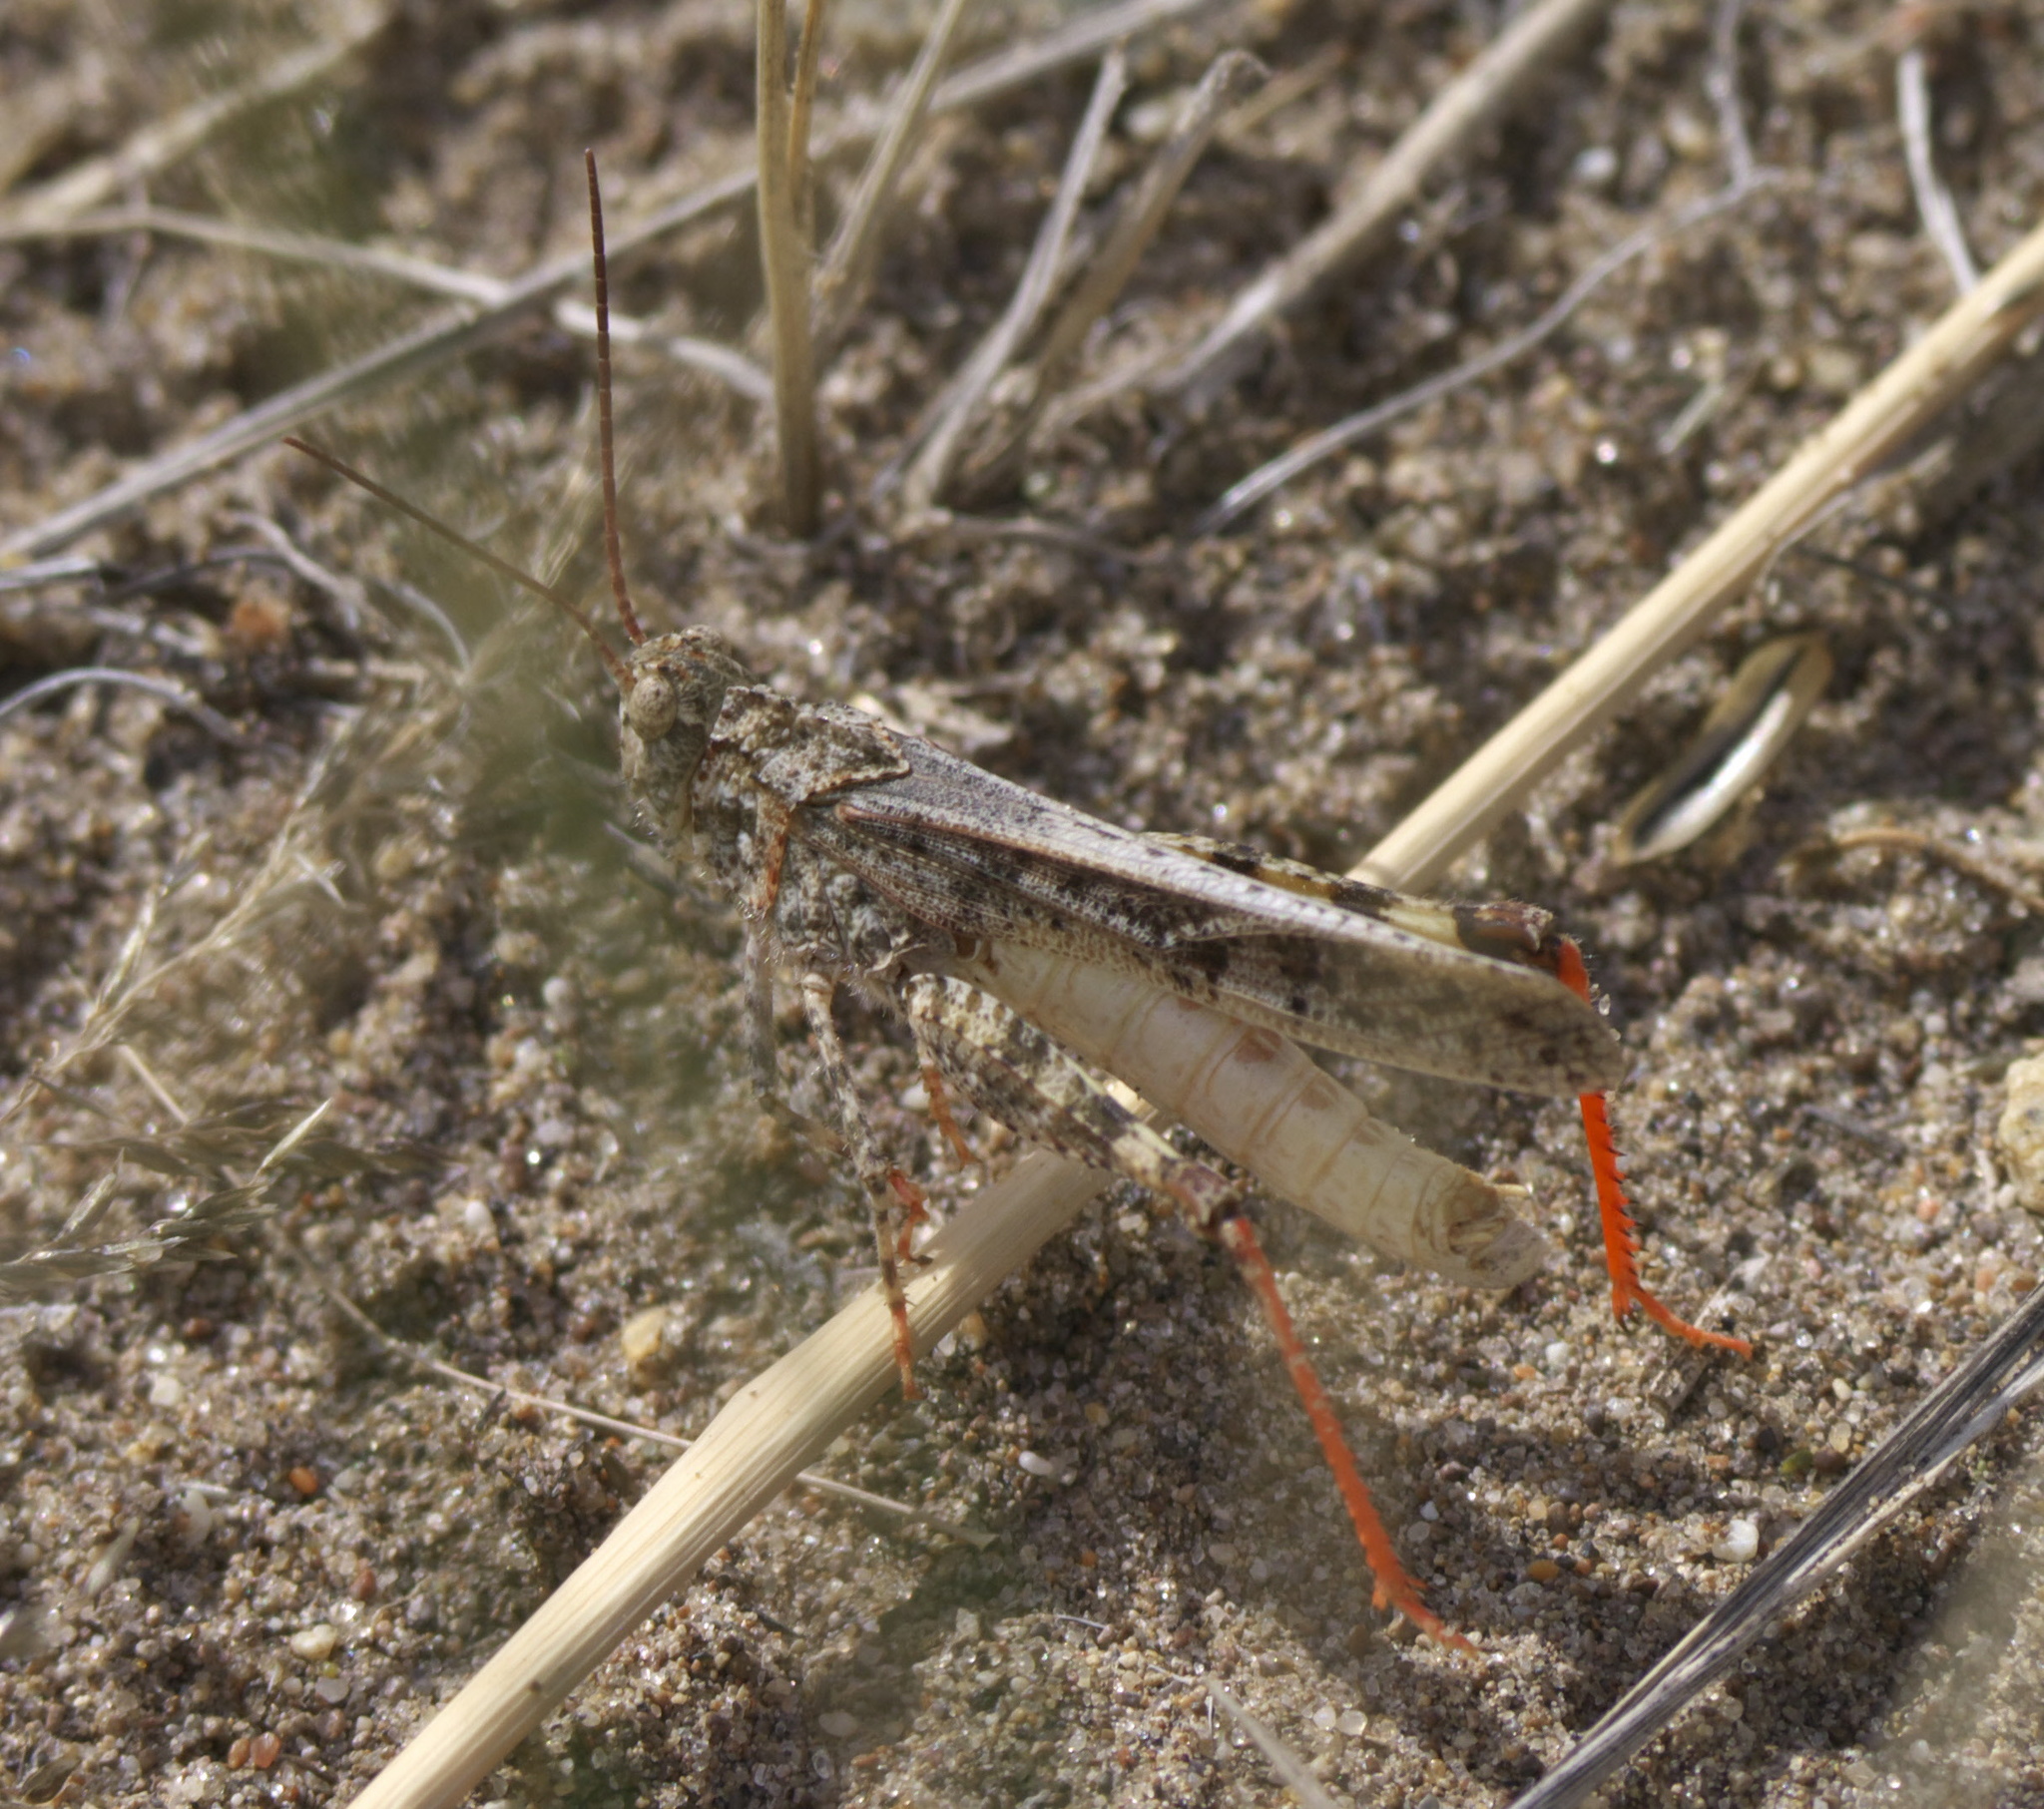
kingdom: Animalia
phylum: Arthropoda
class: Insecta
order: Orthoptera
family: Acrididae
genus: Spharagemon
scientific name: Spharagemon collare
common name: Mottled sand grasshopper
